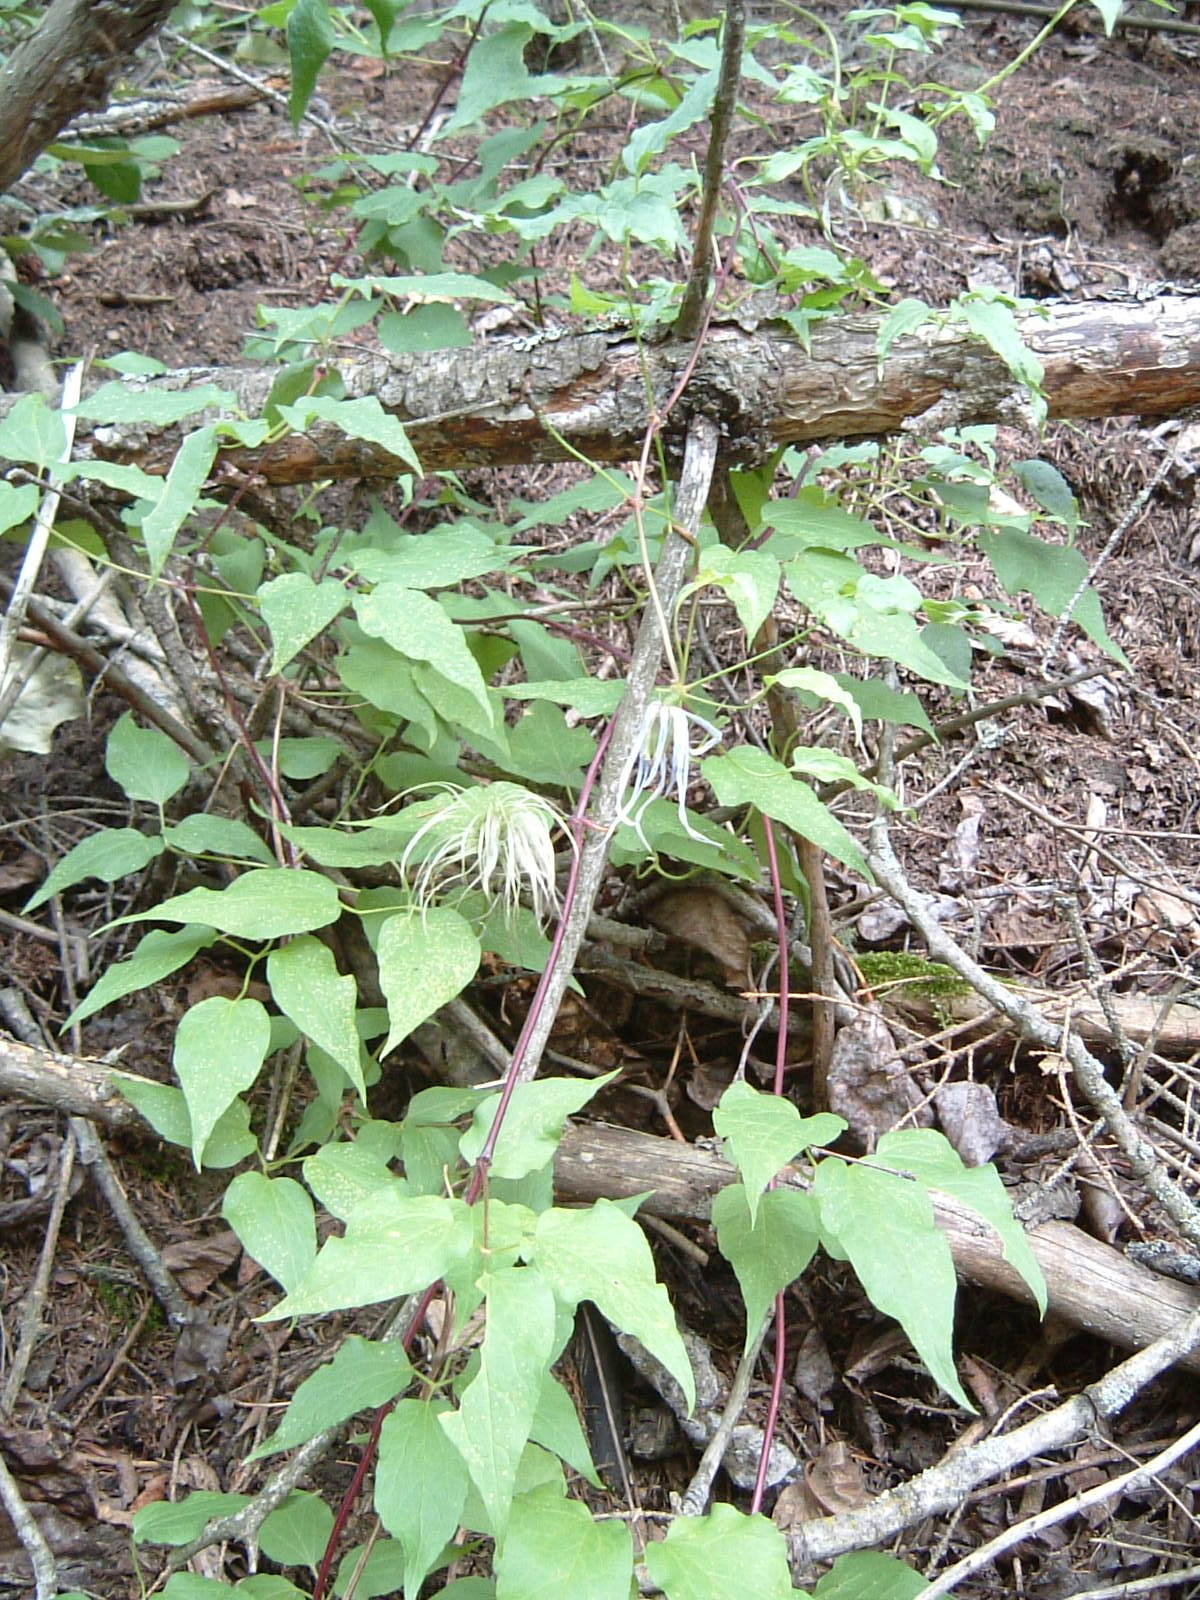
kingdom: Plantae
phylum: Tracheophyta
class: Magnoliopsida
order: Ranunculales
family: Ranunculaceae
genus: Clematis
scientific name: Clematis occidentalis
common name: Purple clematis
